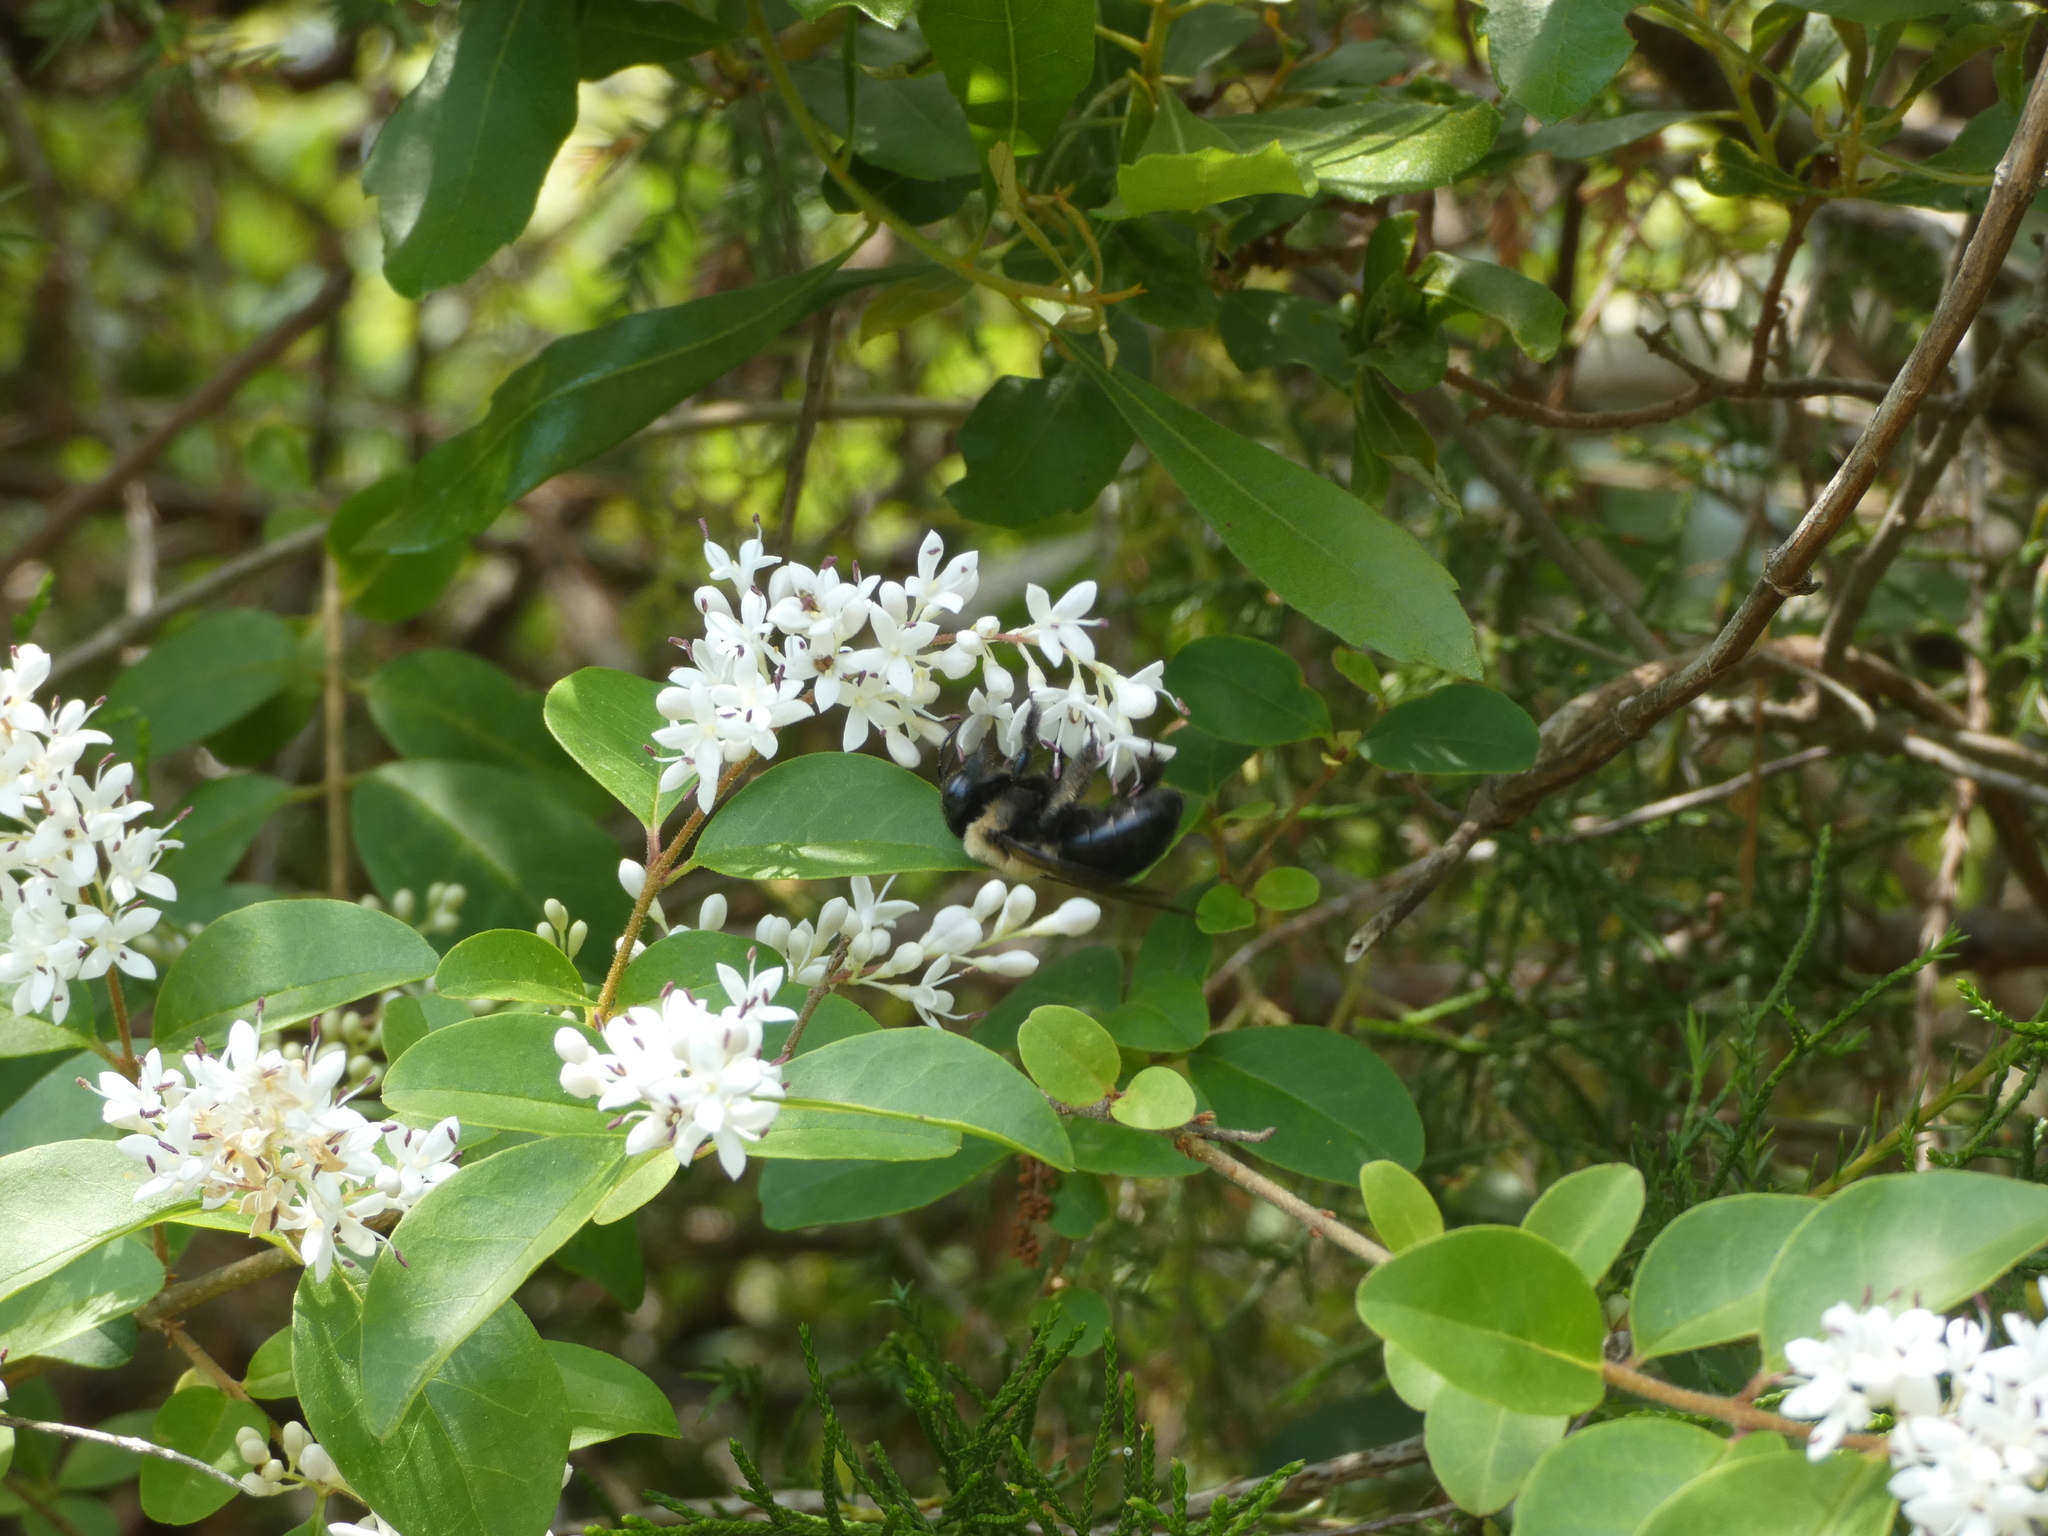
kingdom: Animalia
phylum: Arthropoda
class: Insecta
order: Hymenoptera
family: Apidae
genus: Xylocopa
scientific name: Xylocopa virginica
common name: Carpenter bee
